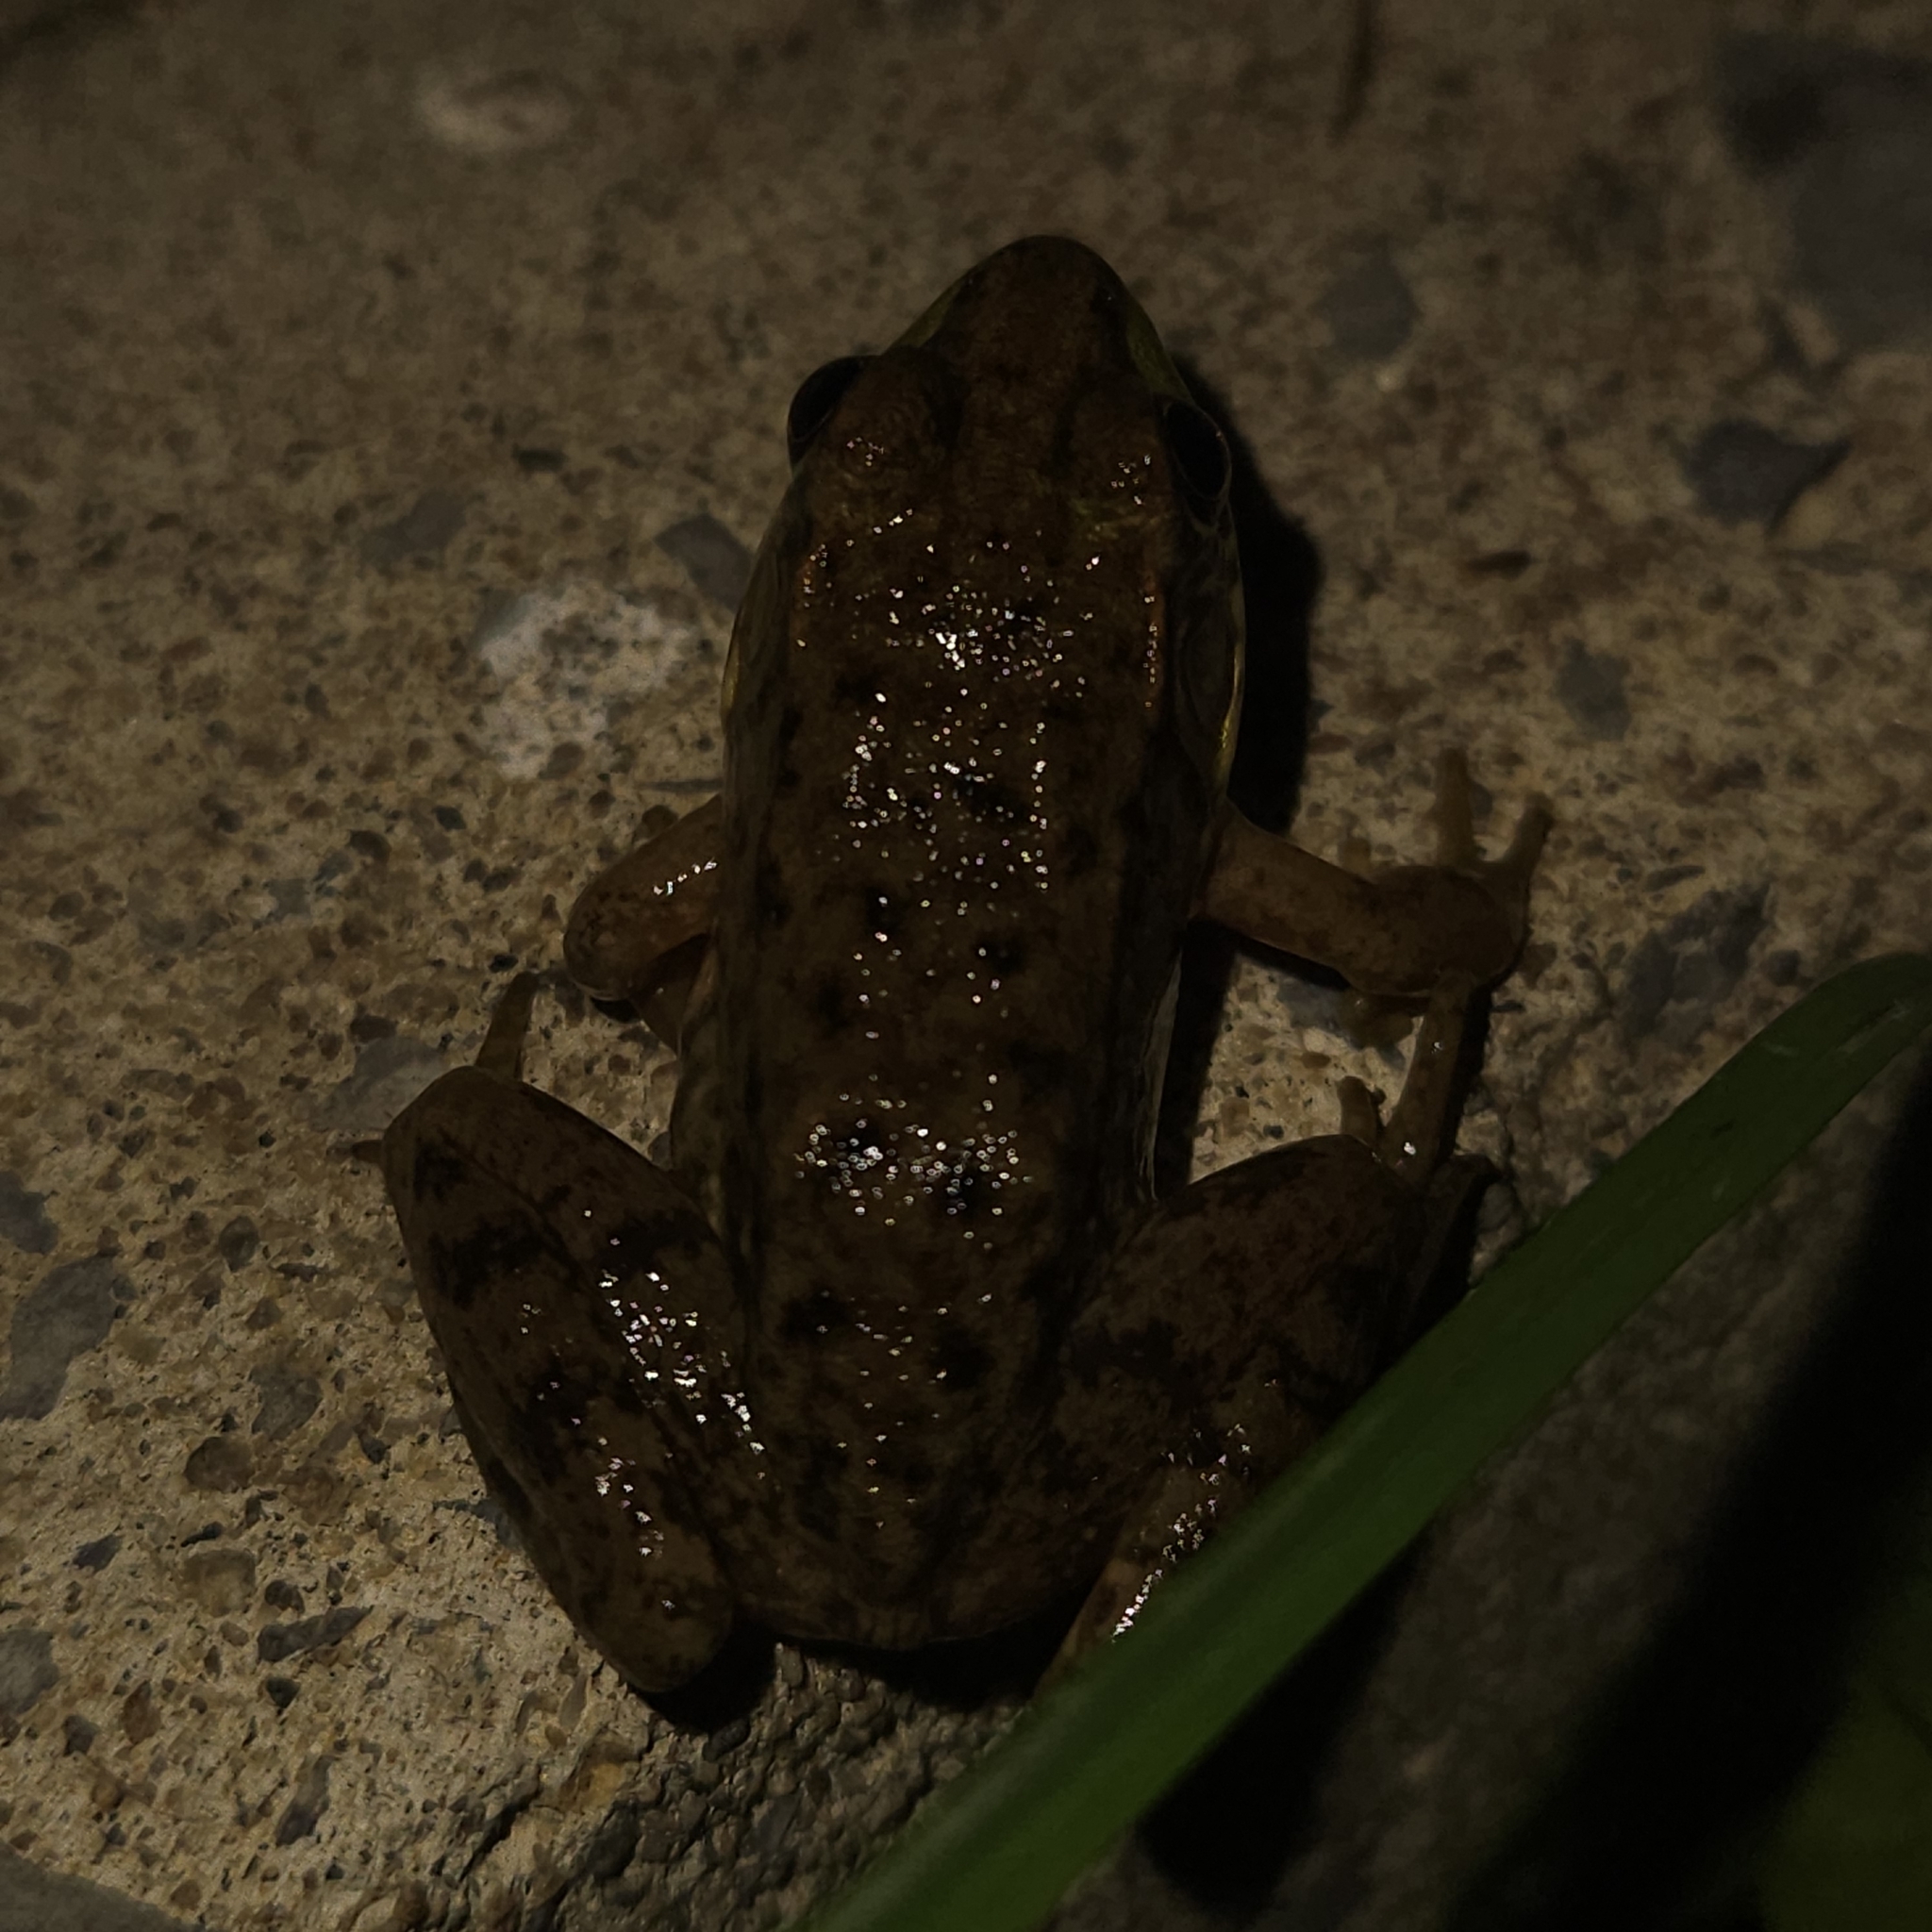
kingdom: Animalia
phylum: Chordata
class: Amphibia
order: Anura
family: Ranidae
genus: Lithobates
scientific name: Lithobates clamitans
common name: Green frog
